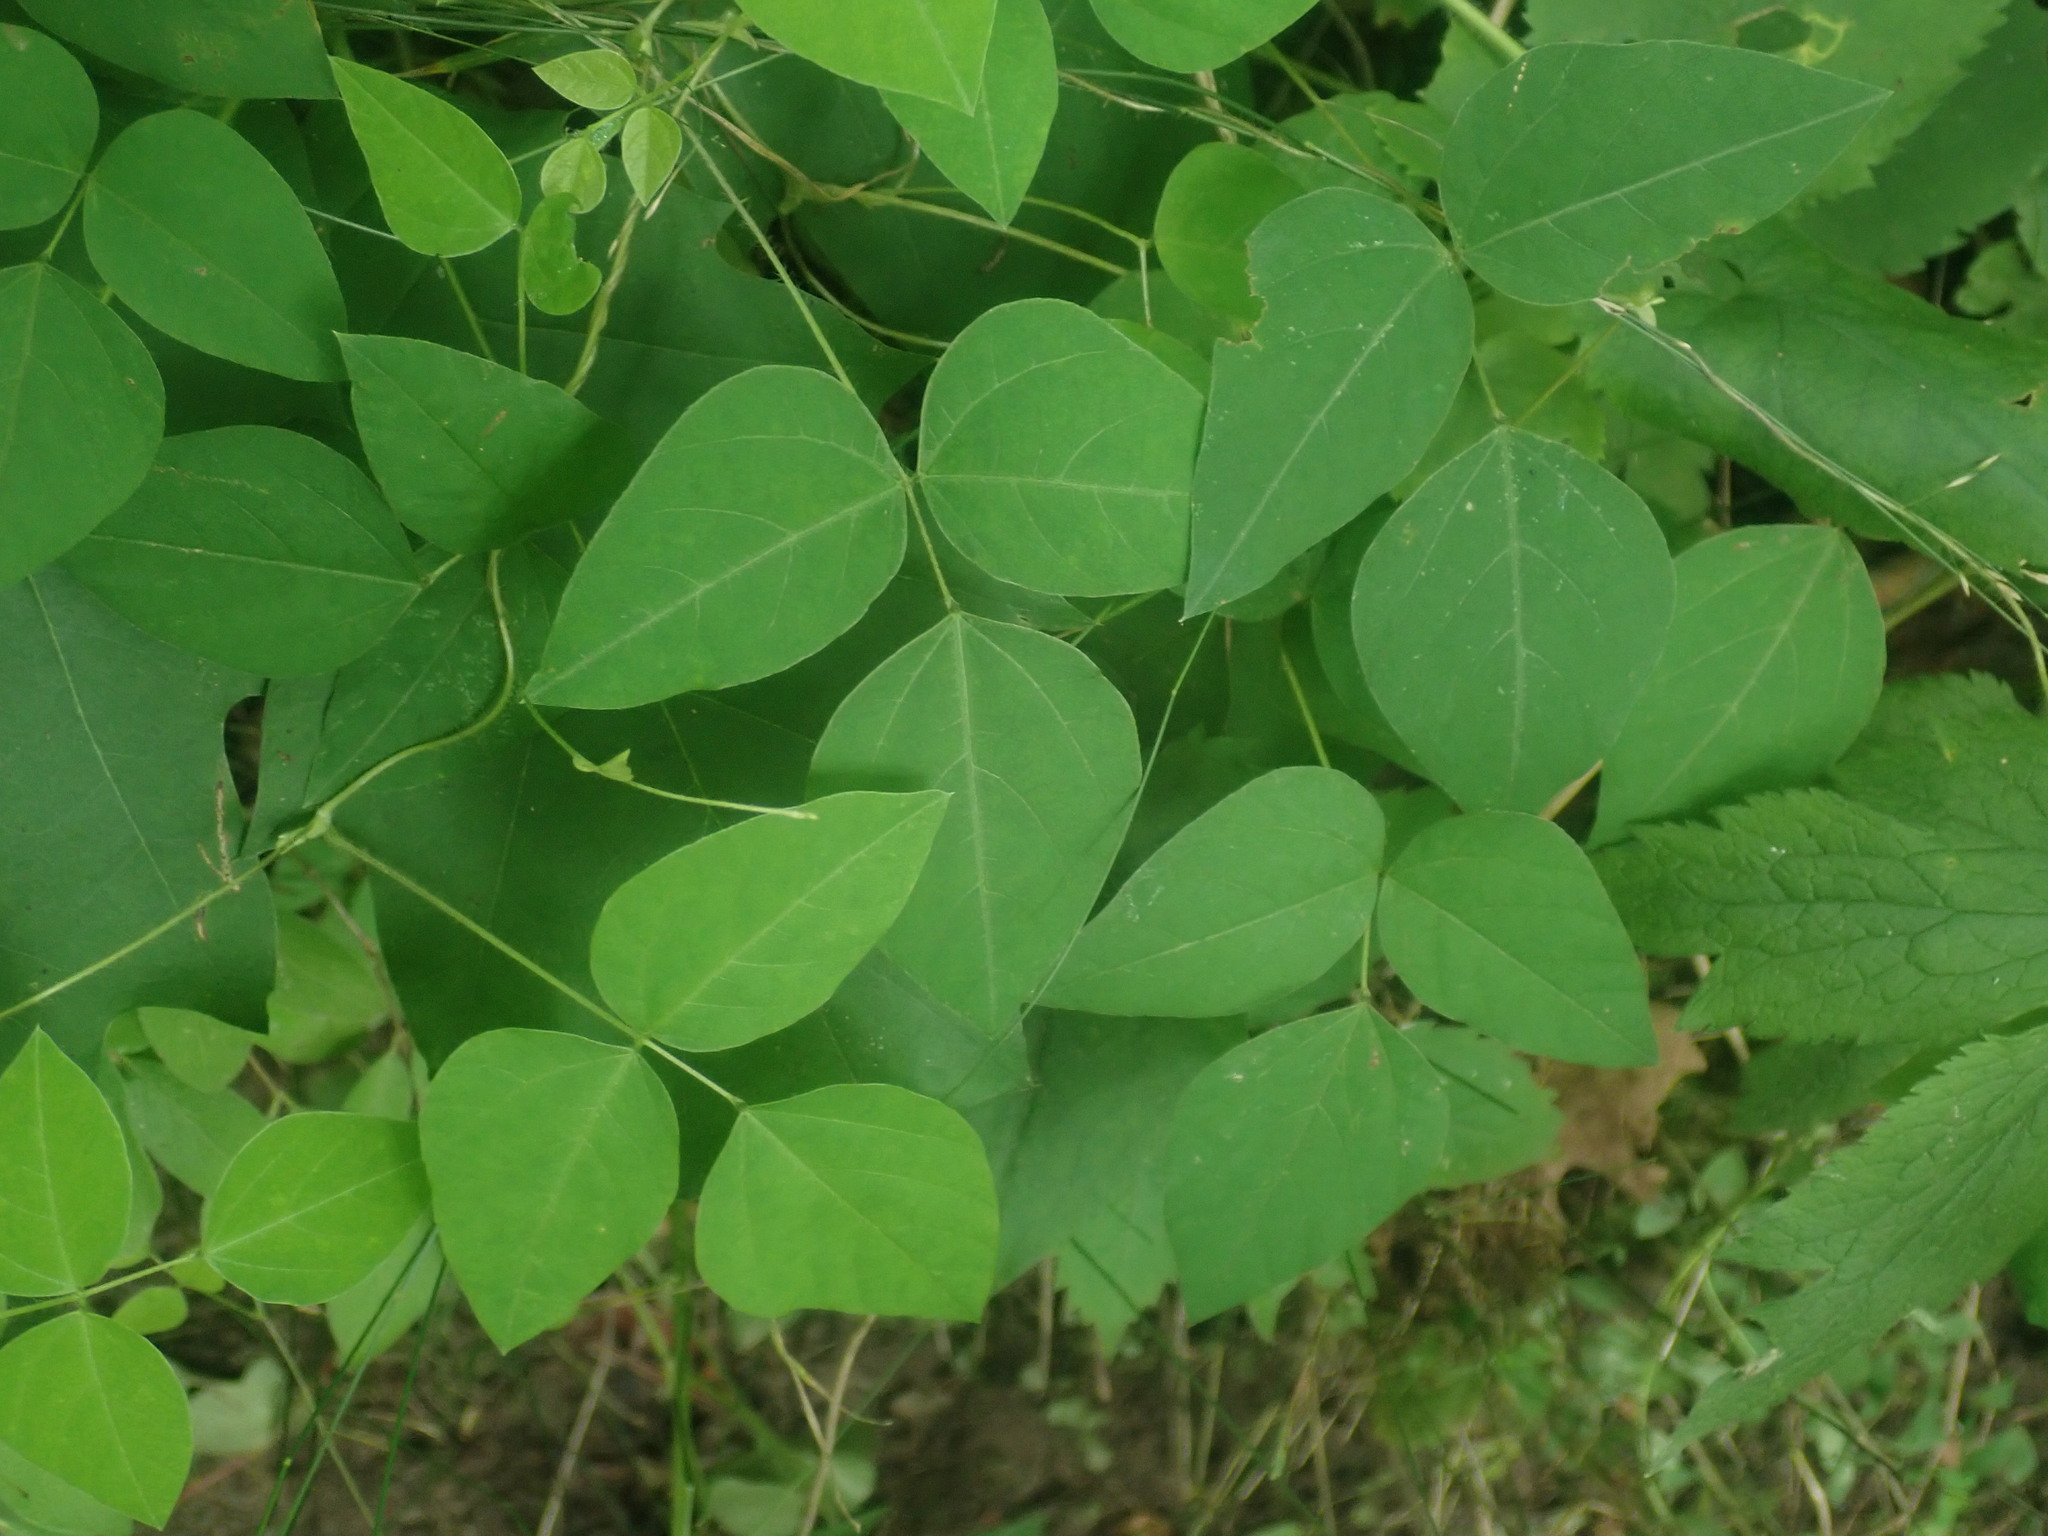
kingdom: Plantae
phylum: Tracheophyta
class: Magnoliopsida
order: Fabales
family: Fabaceae
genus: Amphicarpaea
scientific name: Amphicarpaea bracteata
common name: American hog peanut
